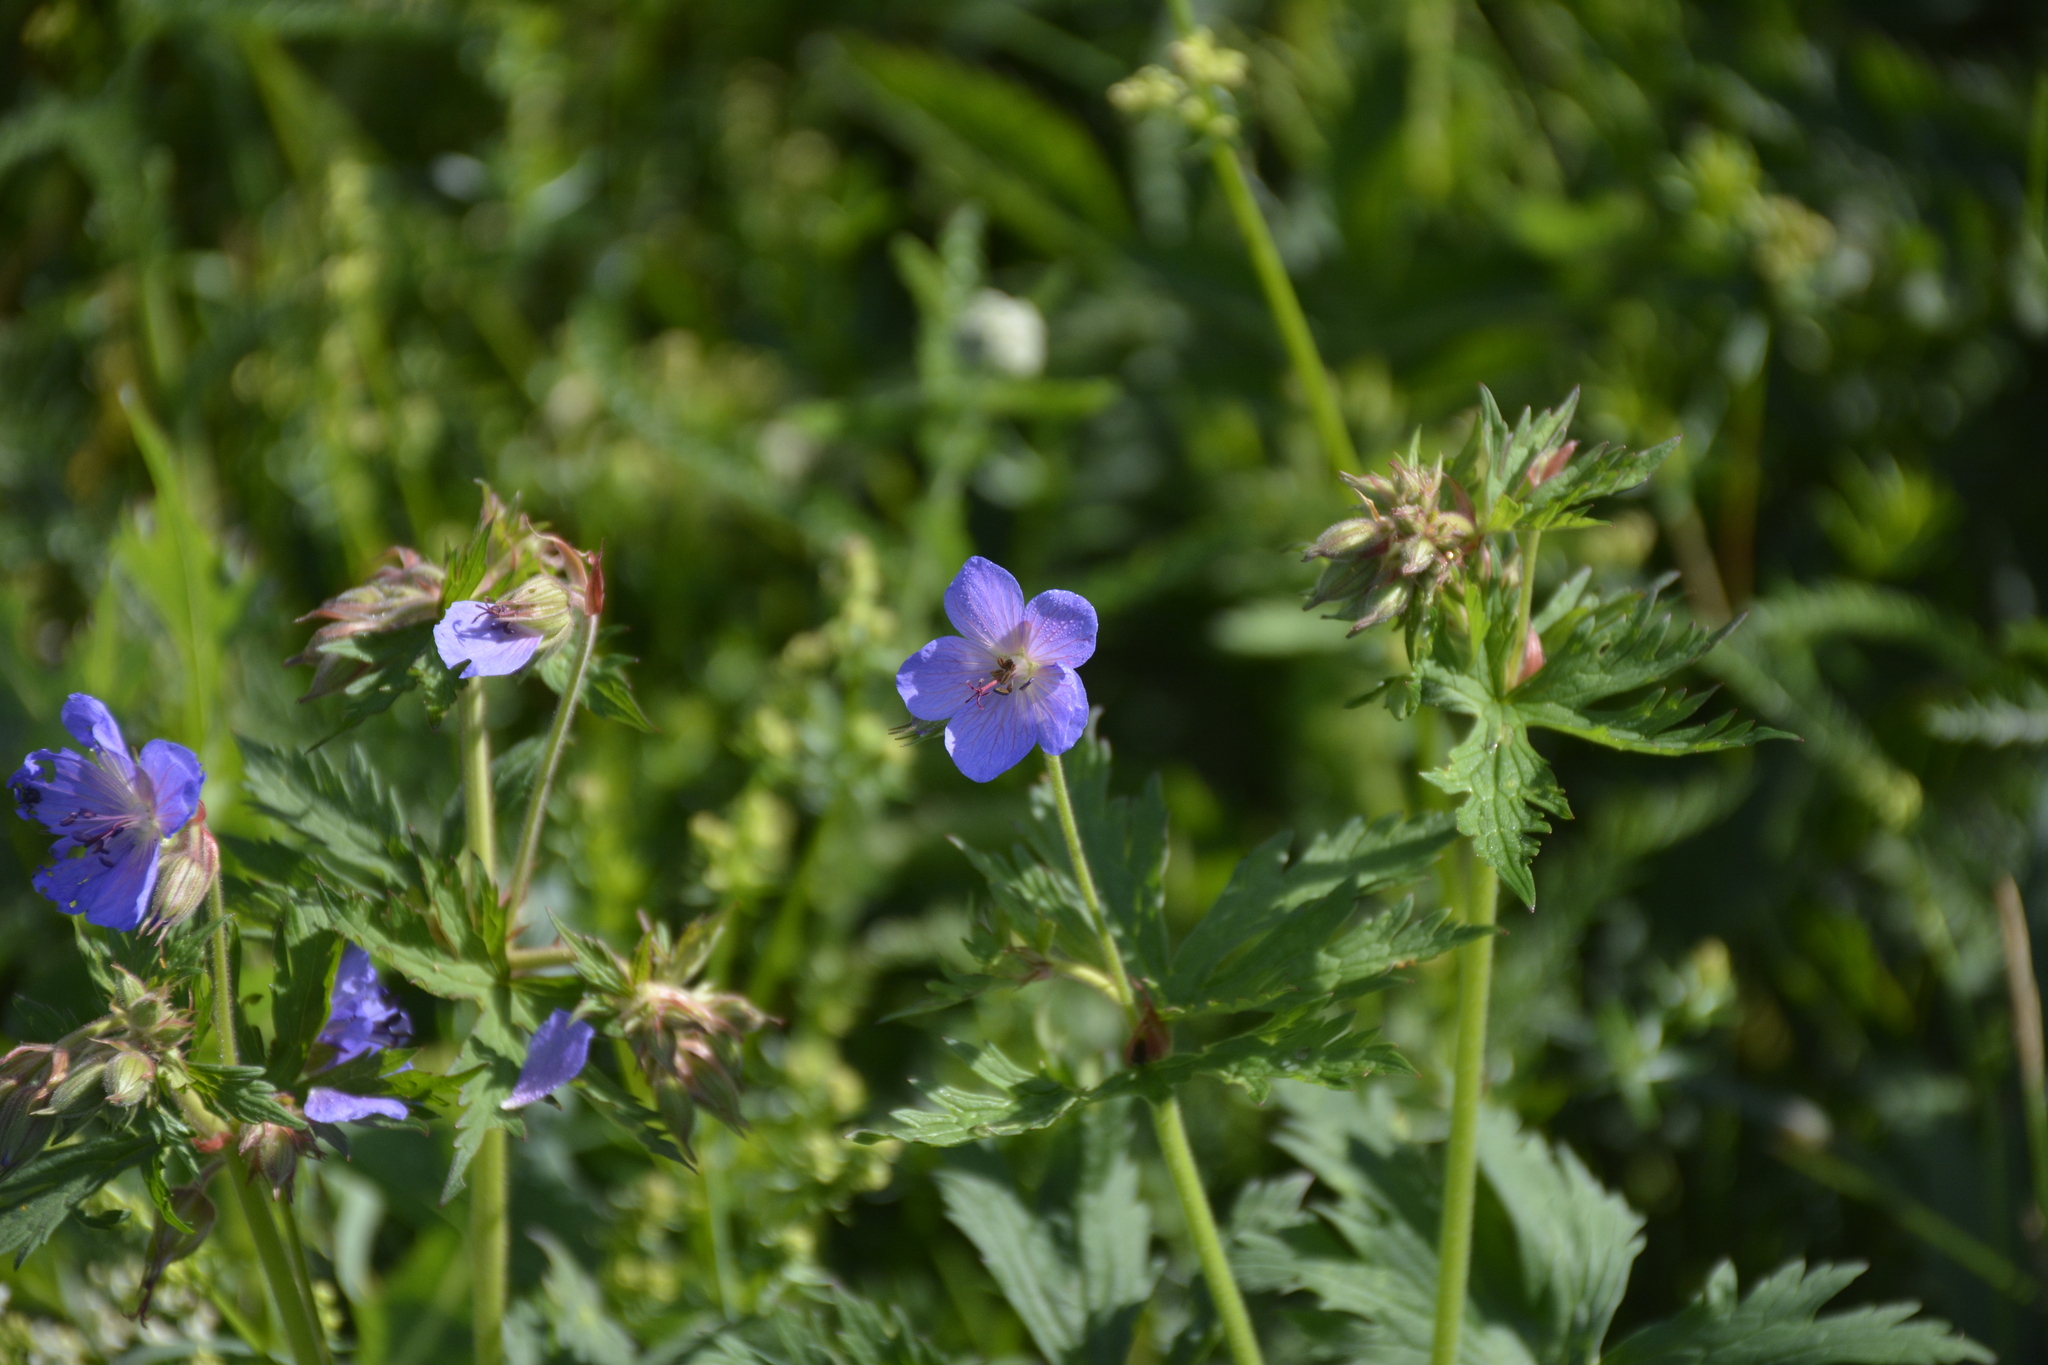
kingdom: Plantae
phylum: Tracheophyta
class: Magnoliopsida
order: Geraniales
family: Geraniaceae
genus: Geranium
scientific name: Geranium pratense
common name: Meadow crane's-bill
